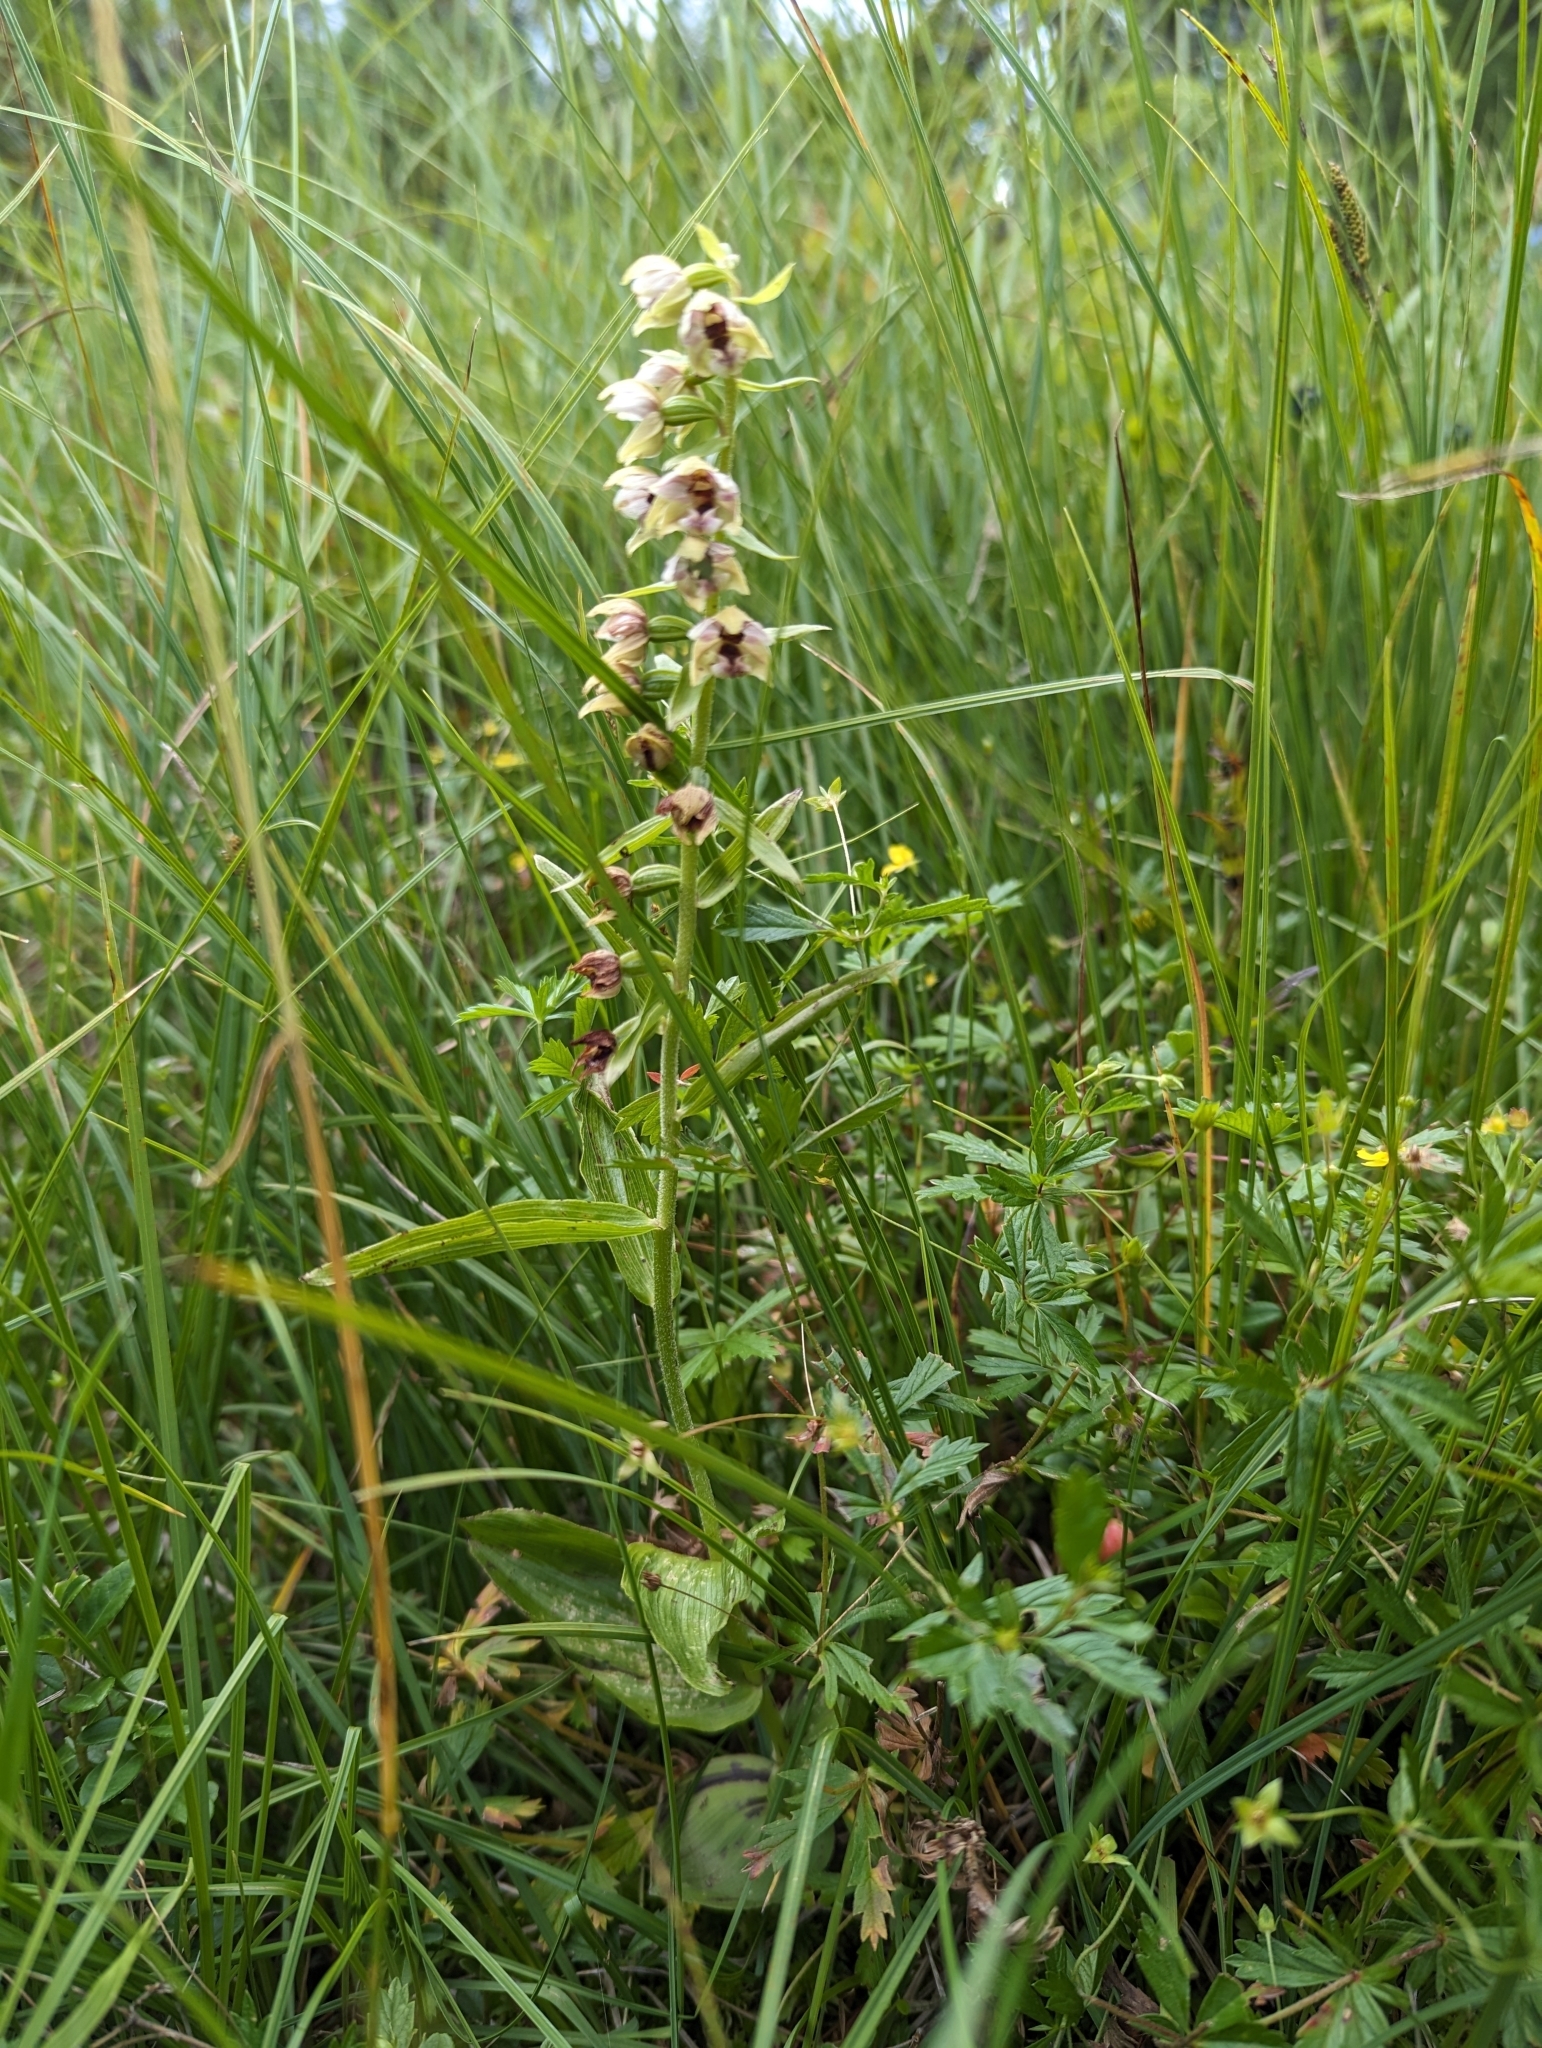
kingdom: Plantae
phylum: Tracheophyta
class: Liliopsida
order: Asparagales
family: Orchidaceae
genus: Epipactis
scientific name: Epipactis helleborine
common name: Broad-leaved helleborine
